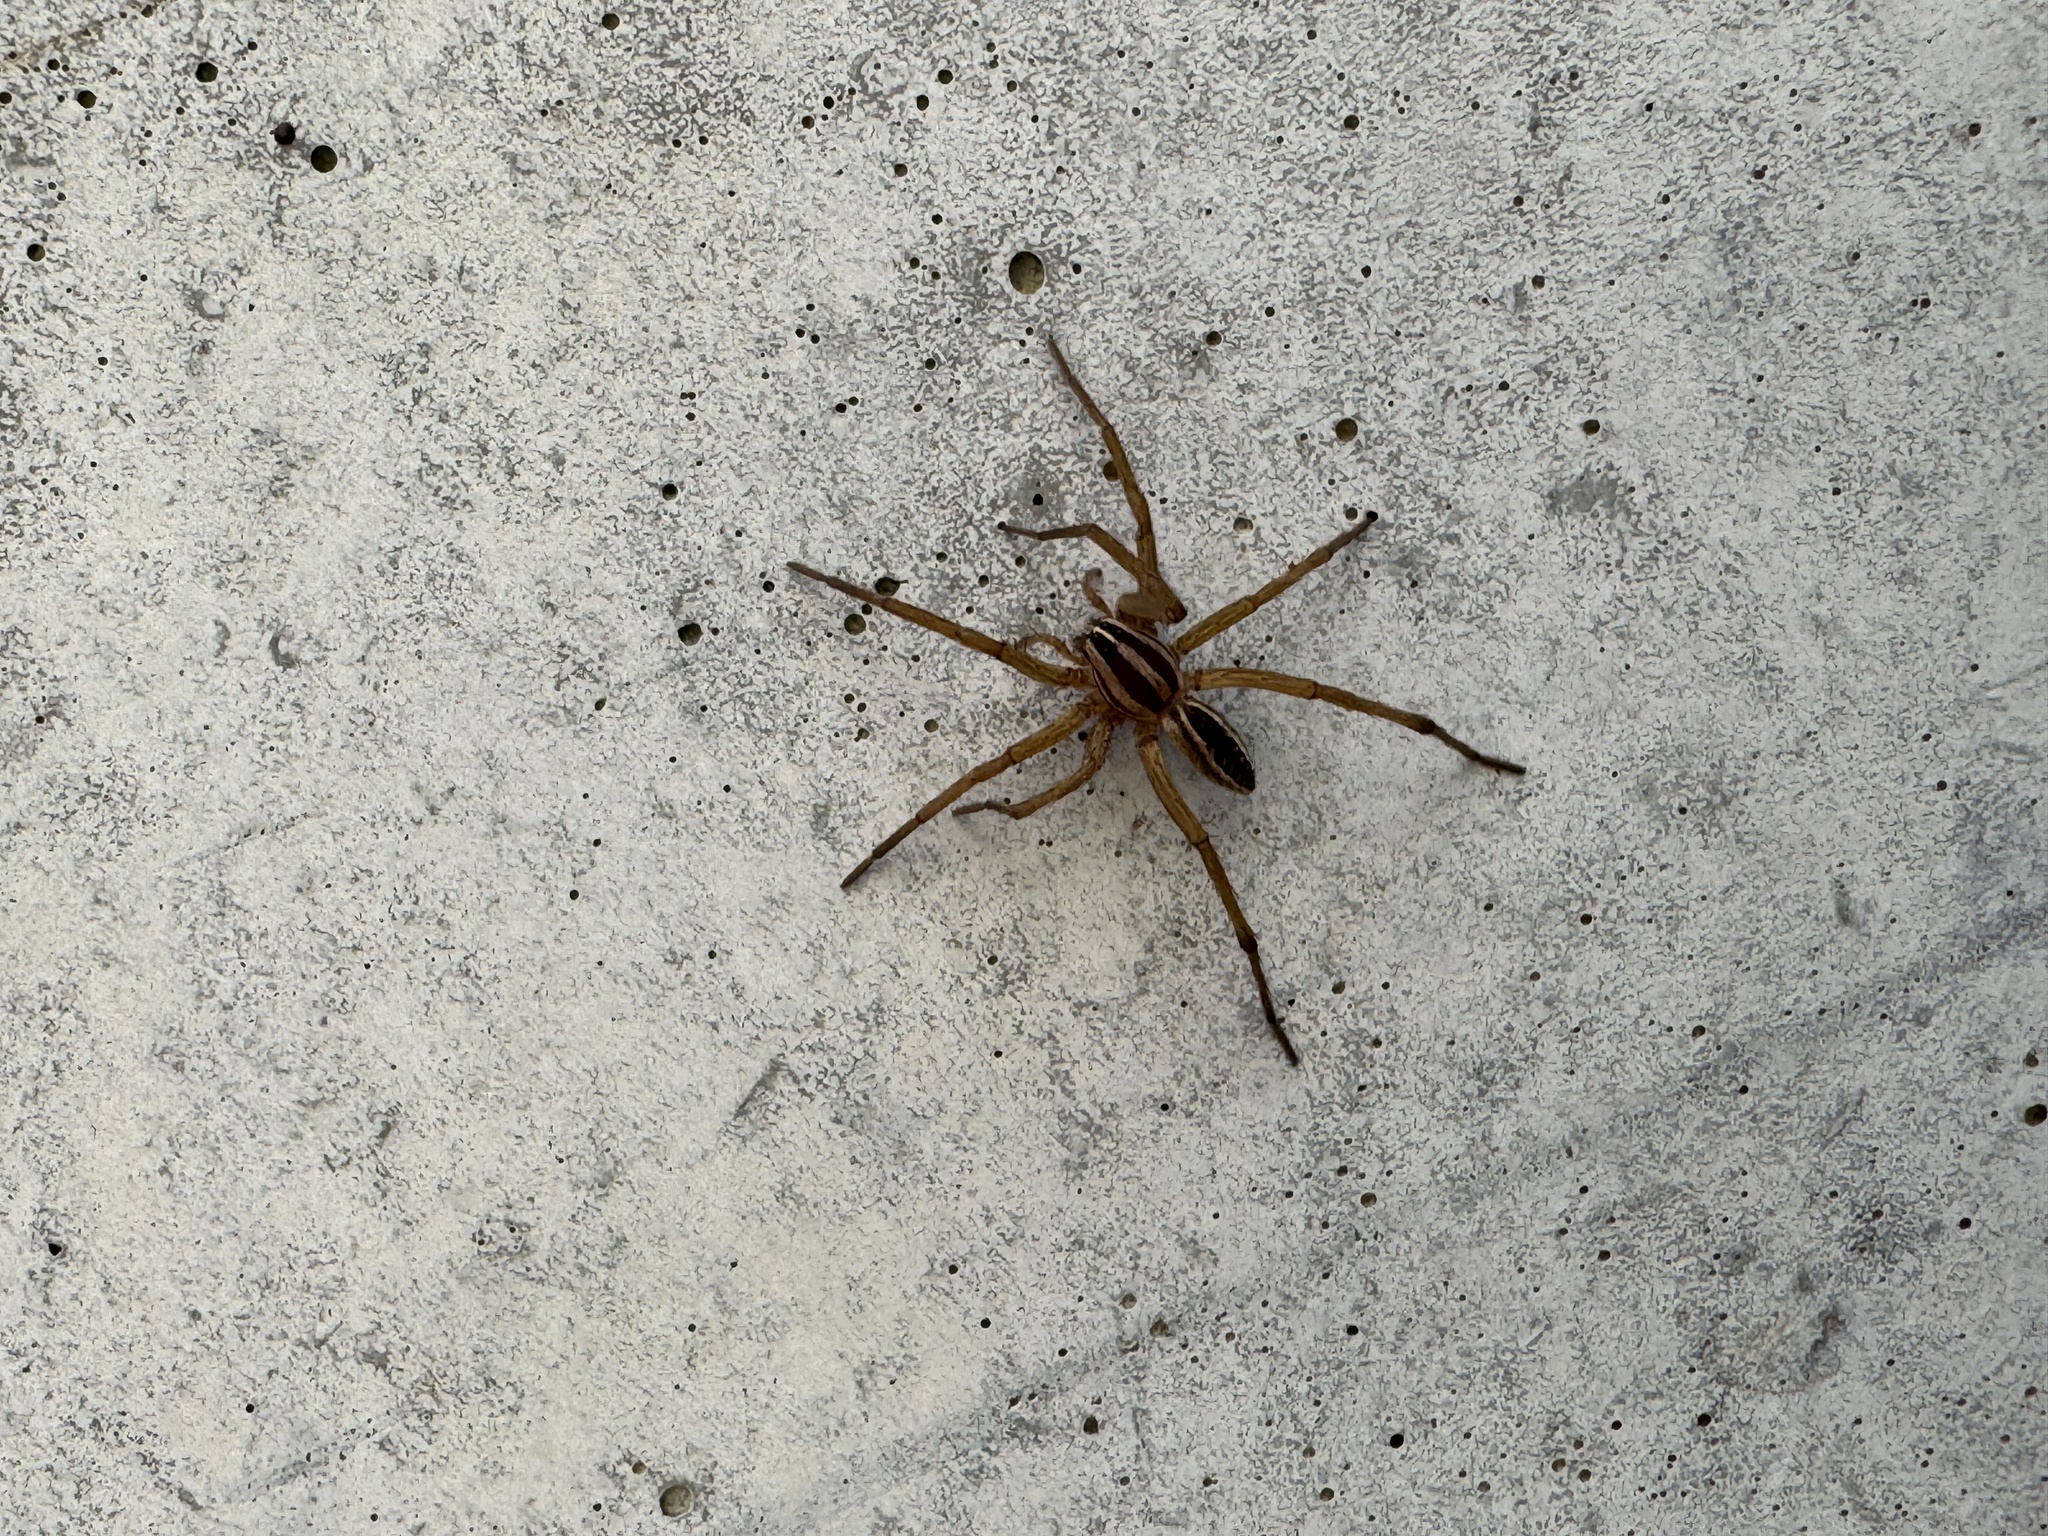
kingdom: Animalia
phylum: Arthropoda
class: Arachnida
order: Araneae
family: Lycosidae
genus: Rabidosa
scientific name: Rabidosa rabida
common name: Rabid wolf spider
